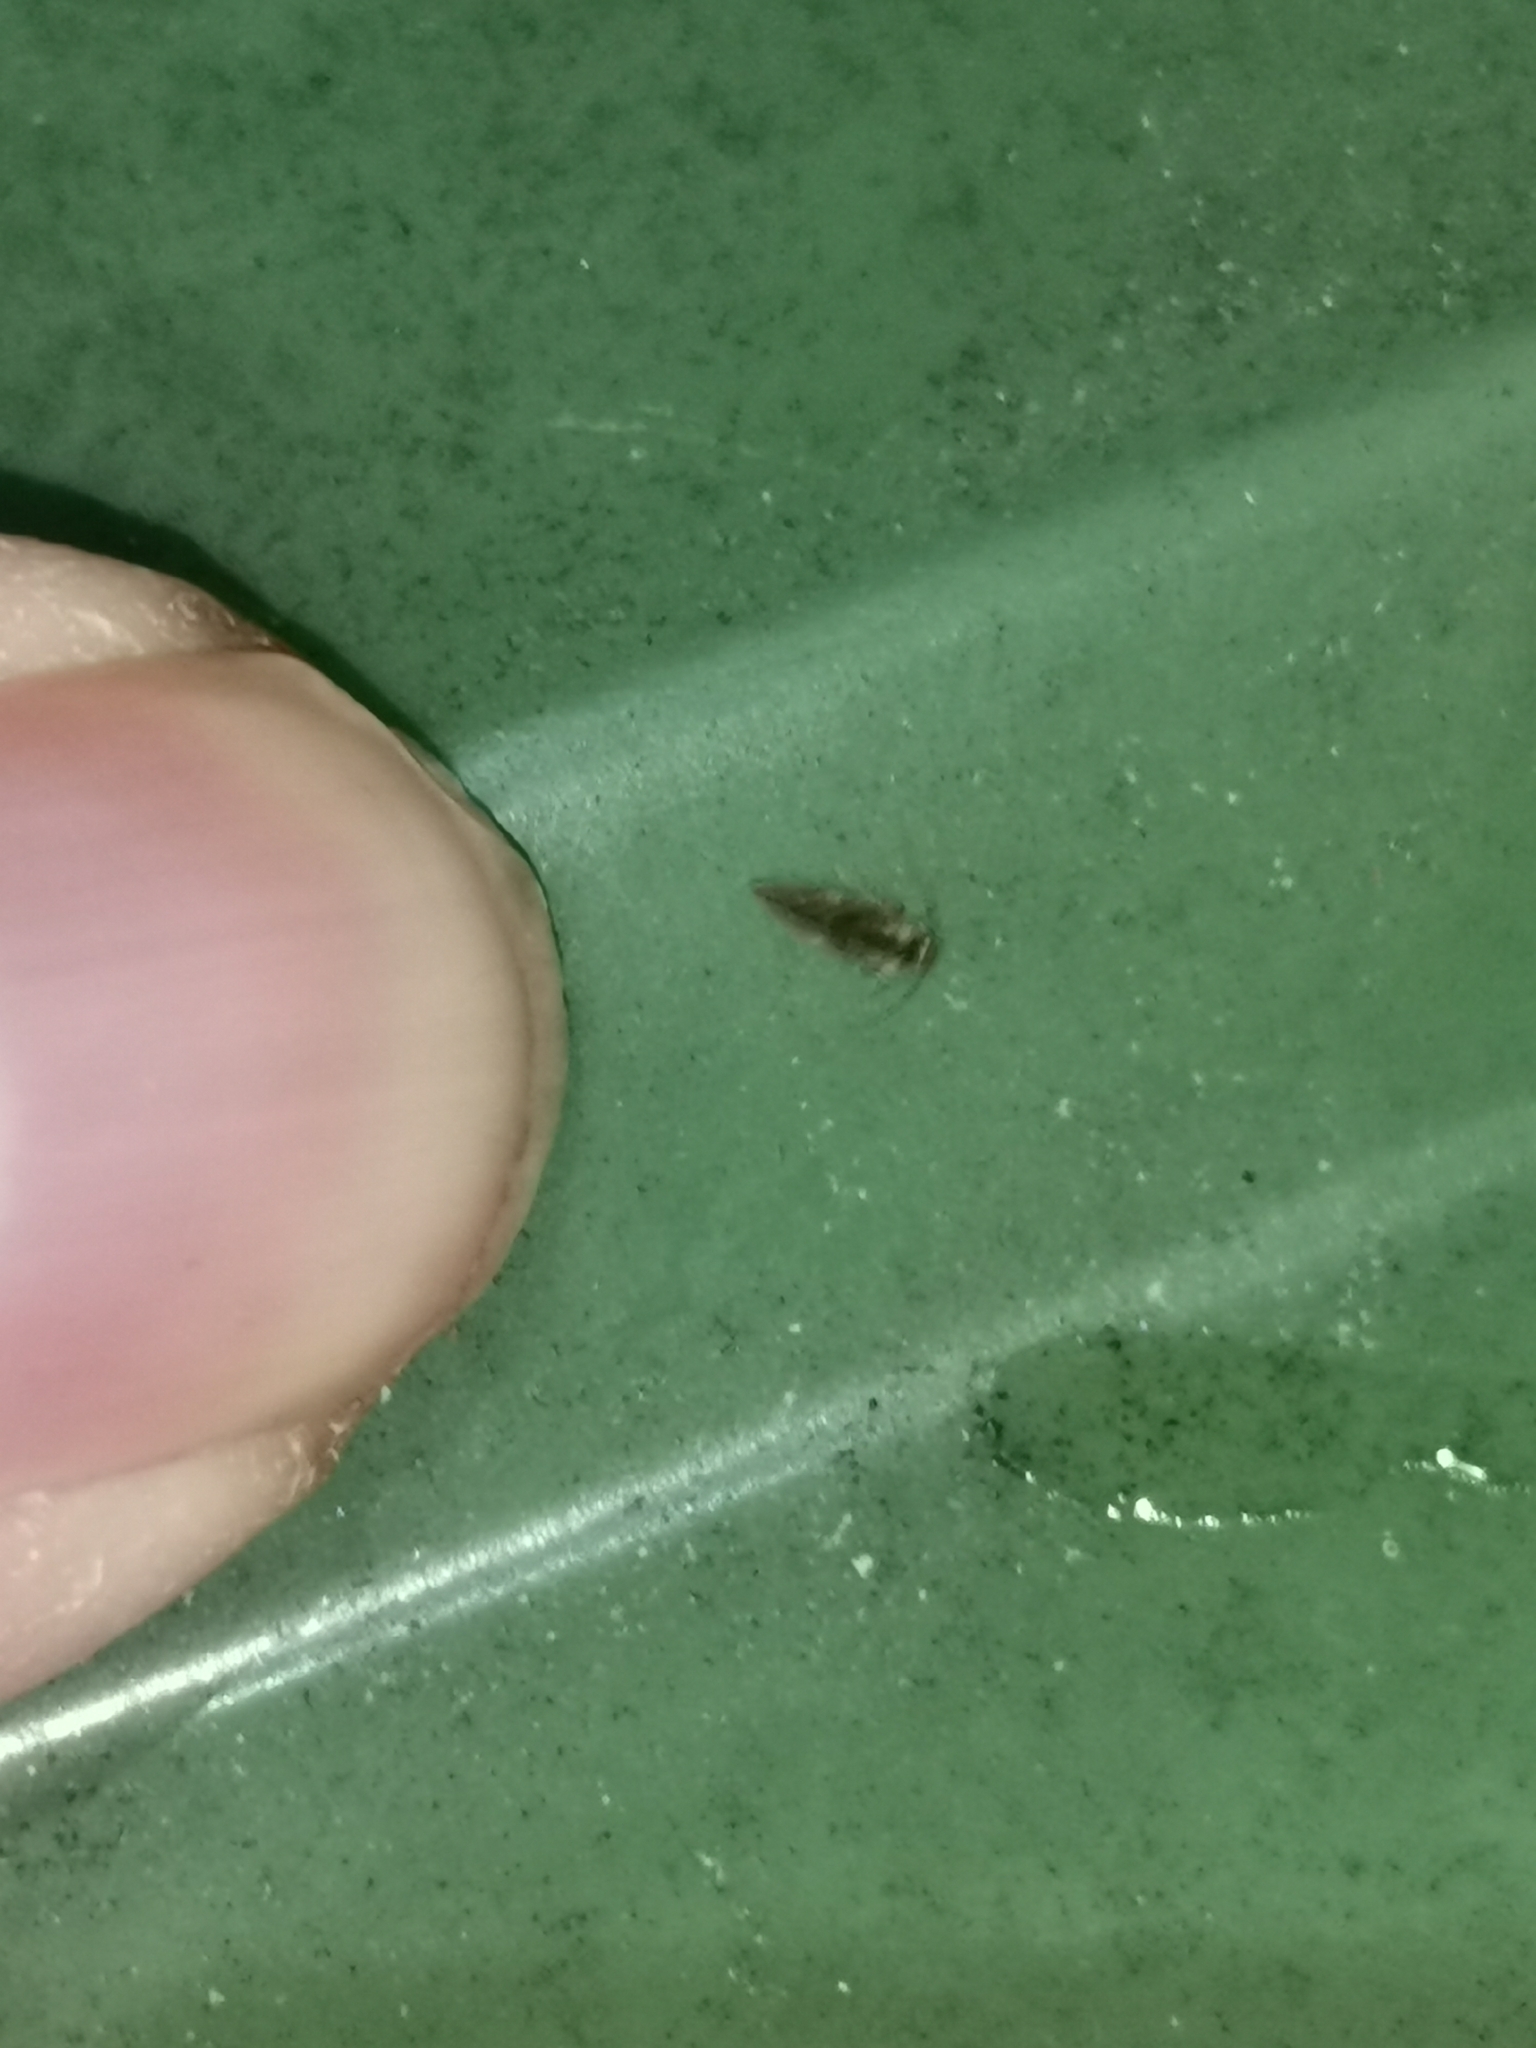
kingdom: Animalia
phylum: Arthropoda
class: Insecta
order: Psocodea
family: Caeciliusidae
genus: Valenzuela
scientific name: Valenzuela flavidus
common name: Yellow barklouse
